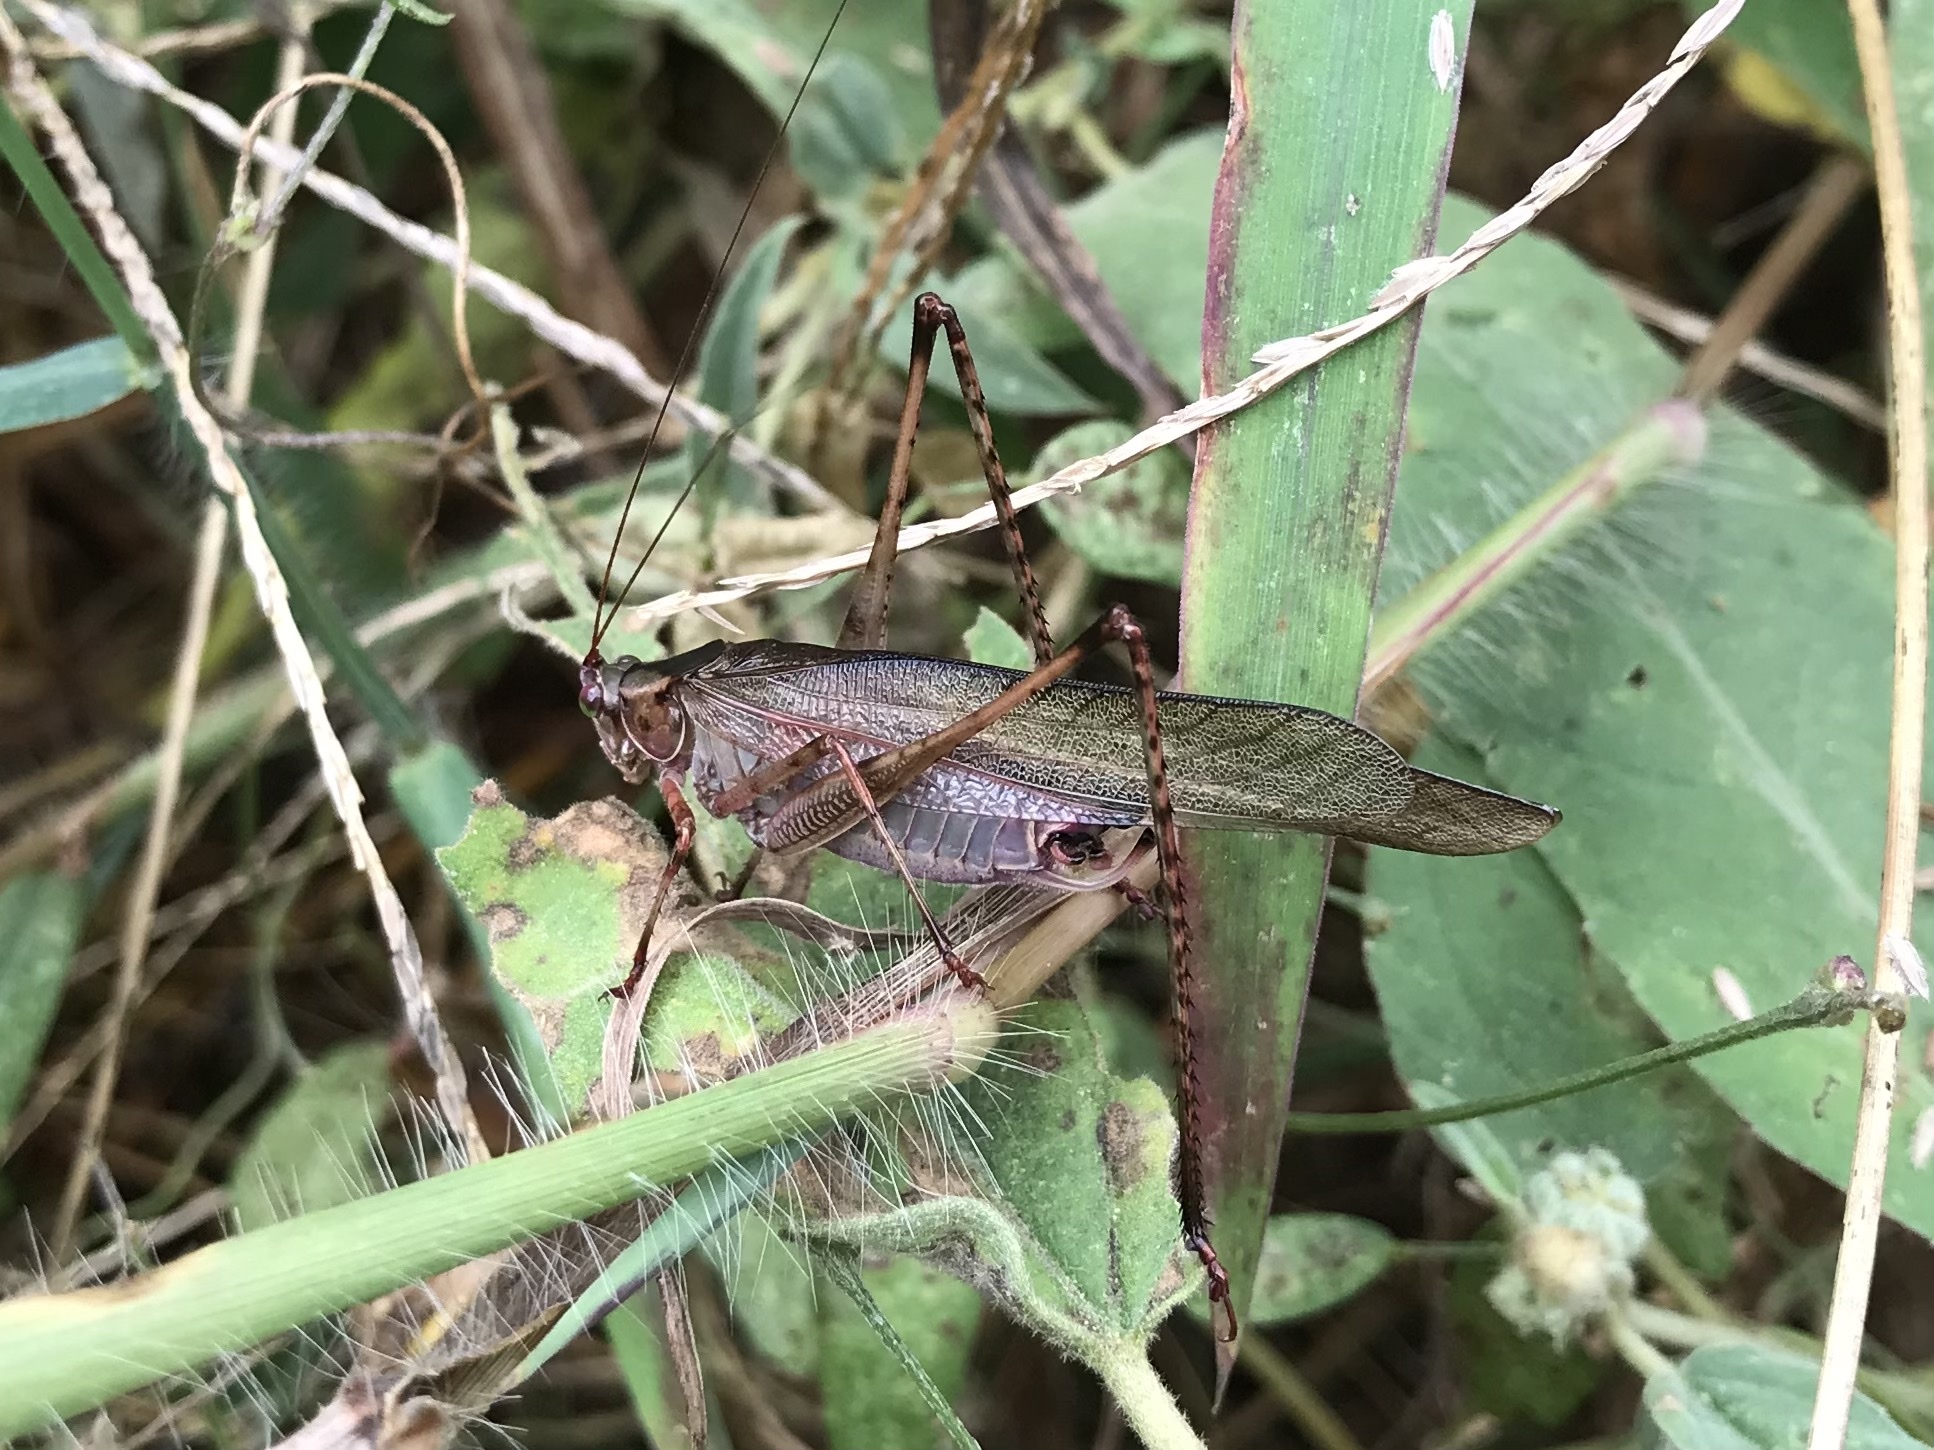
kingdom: Animalia
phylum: Arthropoda
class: Insecta
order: Orthoptera
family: Tettigoniidae
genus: Scudderia
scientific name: Scudderia furcata
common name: Fork-tailed bush katydid
